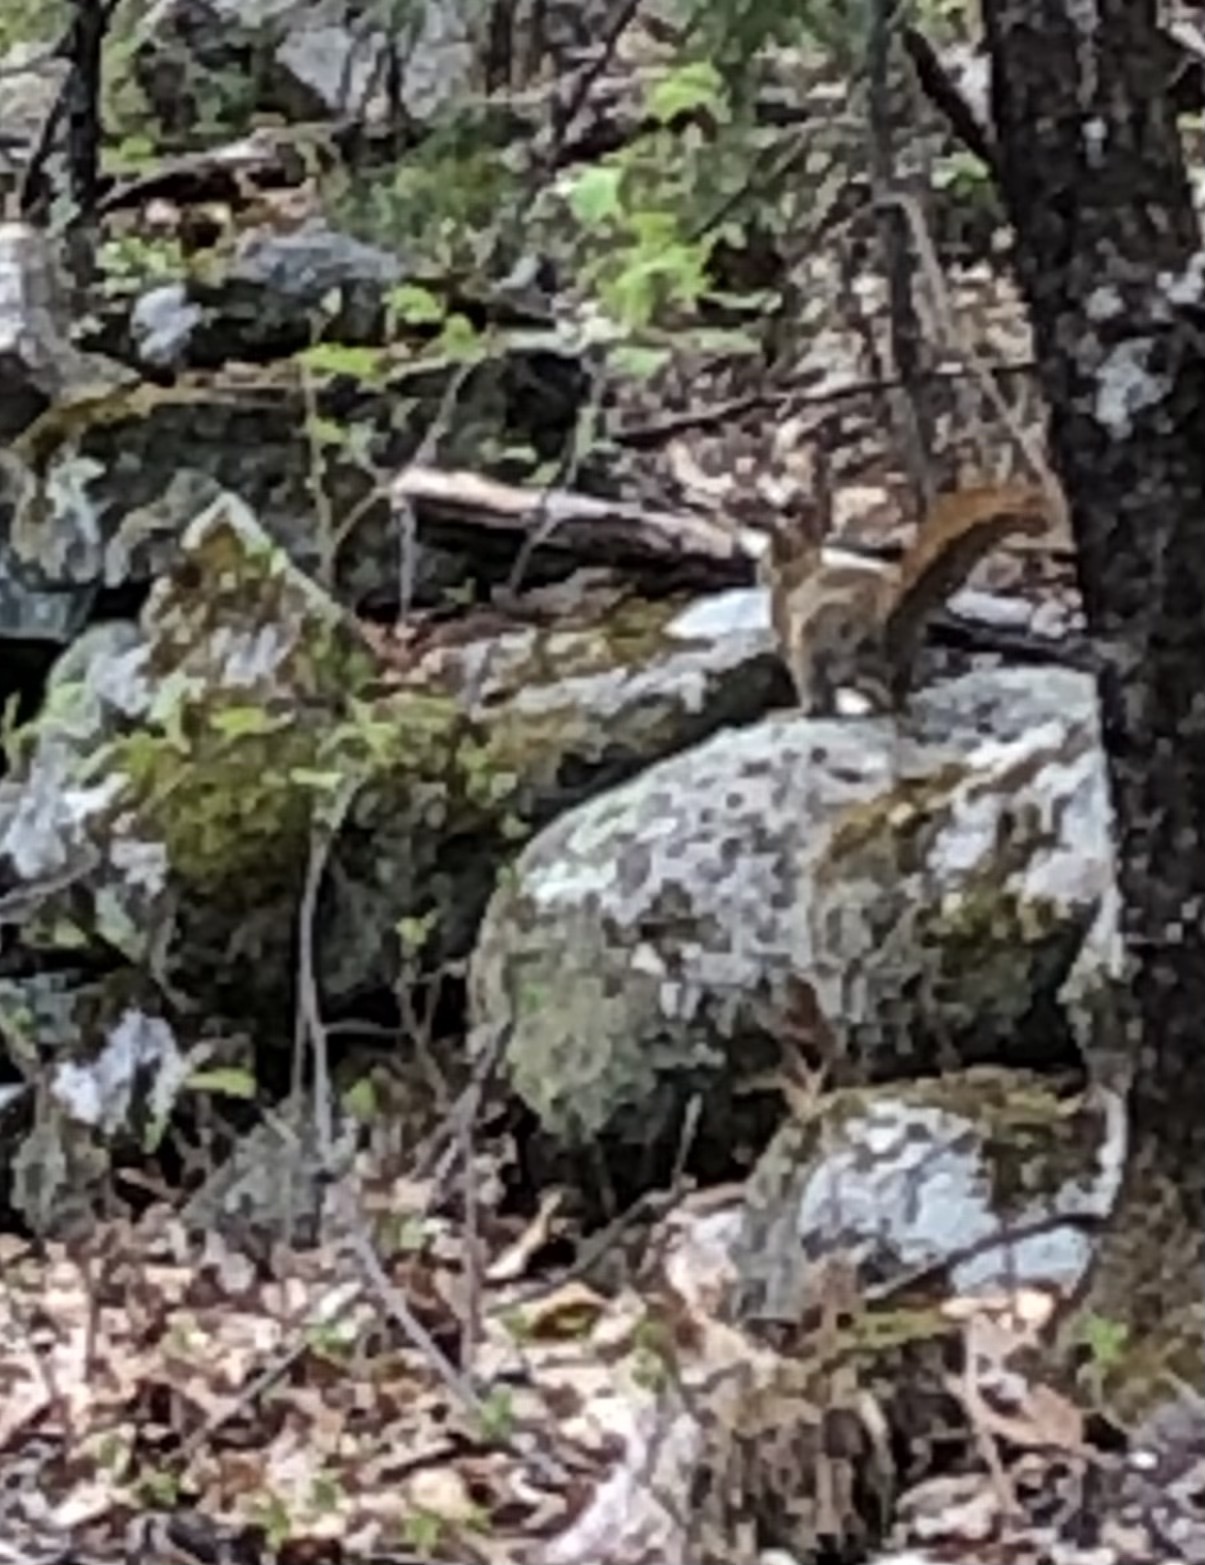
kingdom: Animalia
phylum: Chordata
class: Mammalia
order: Rodentia
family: Sciuridae
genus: Tamiasciurus
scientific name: Tamiasciurus hudsonicus
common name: Red squirrel
